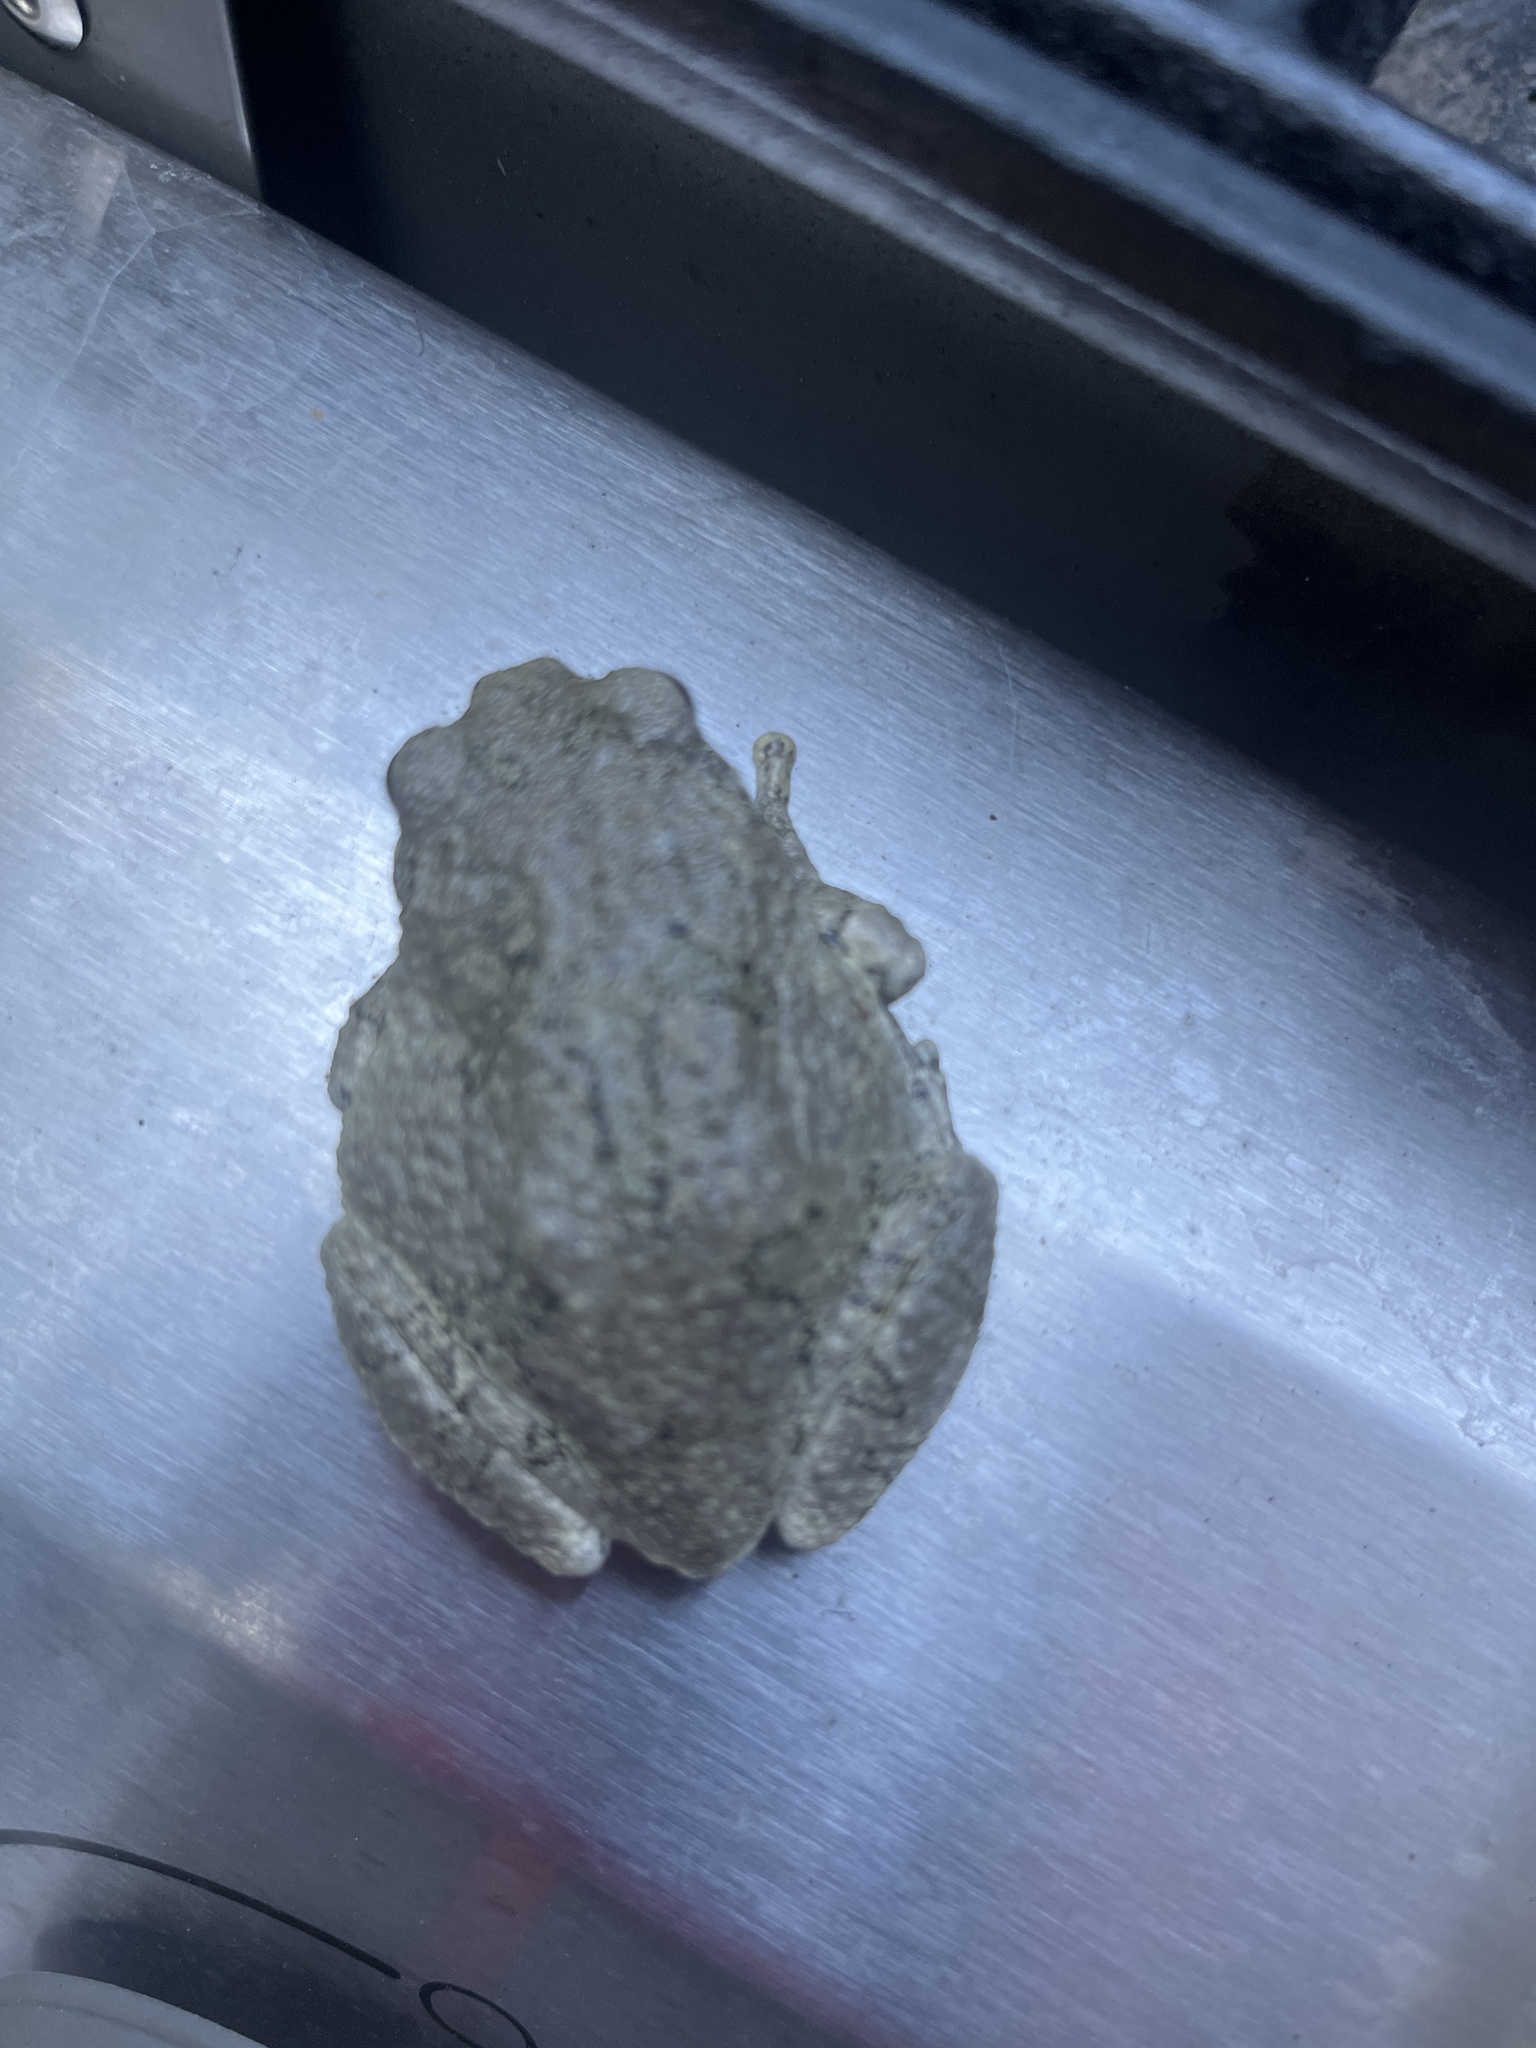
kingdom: Animalia
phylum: Chordata
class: Amphibia
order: Anura
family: Hylidae
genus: Dryophytes
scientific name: Dryophytes versicolor
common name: Gray treefrog
